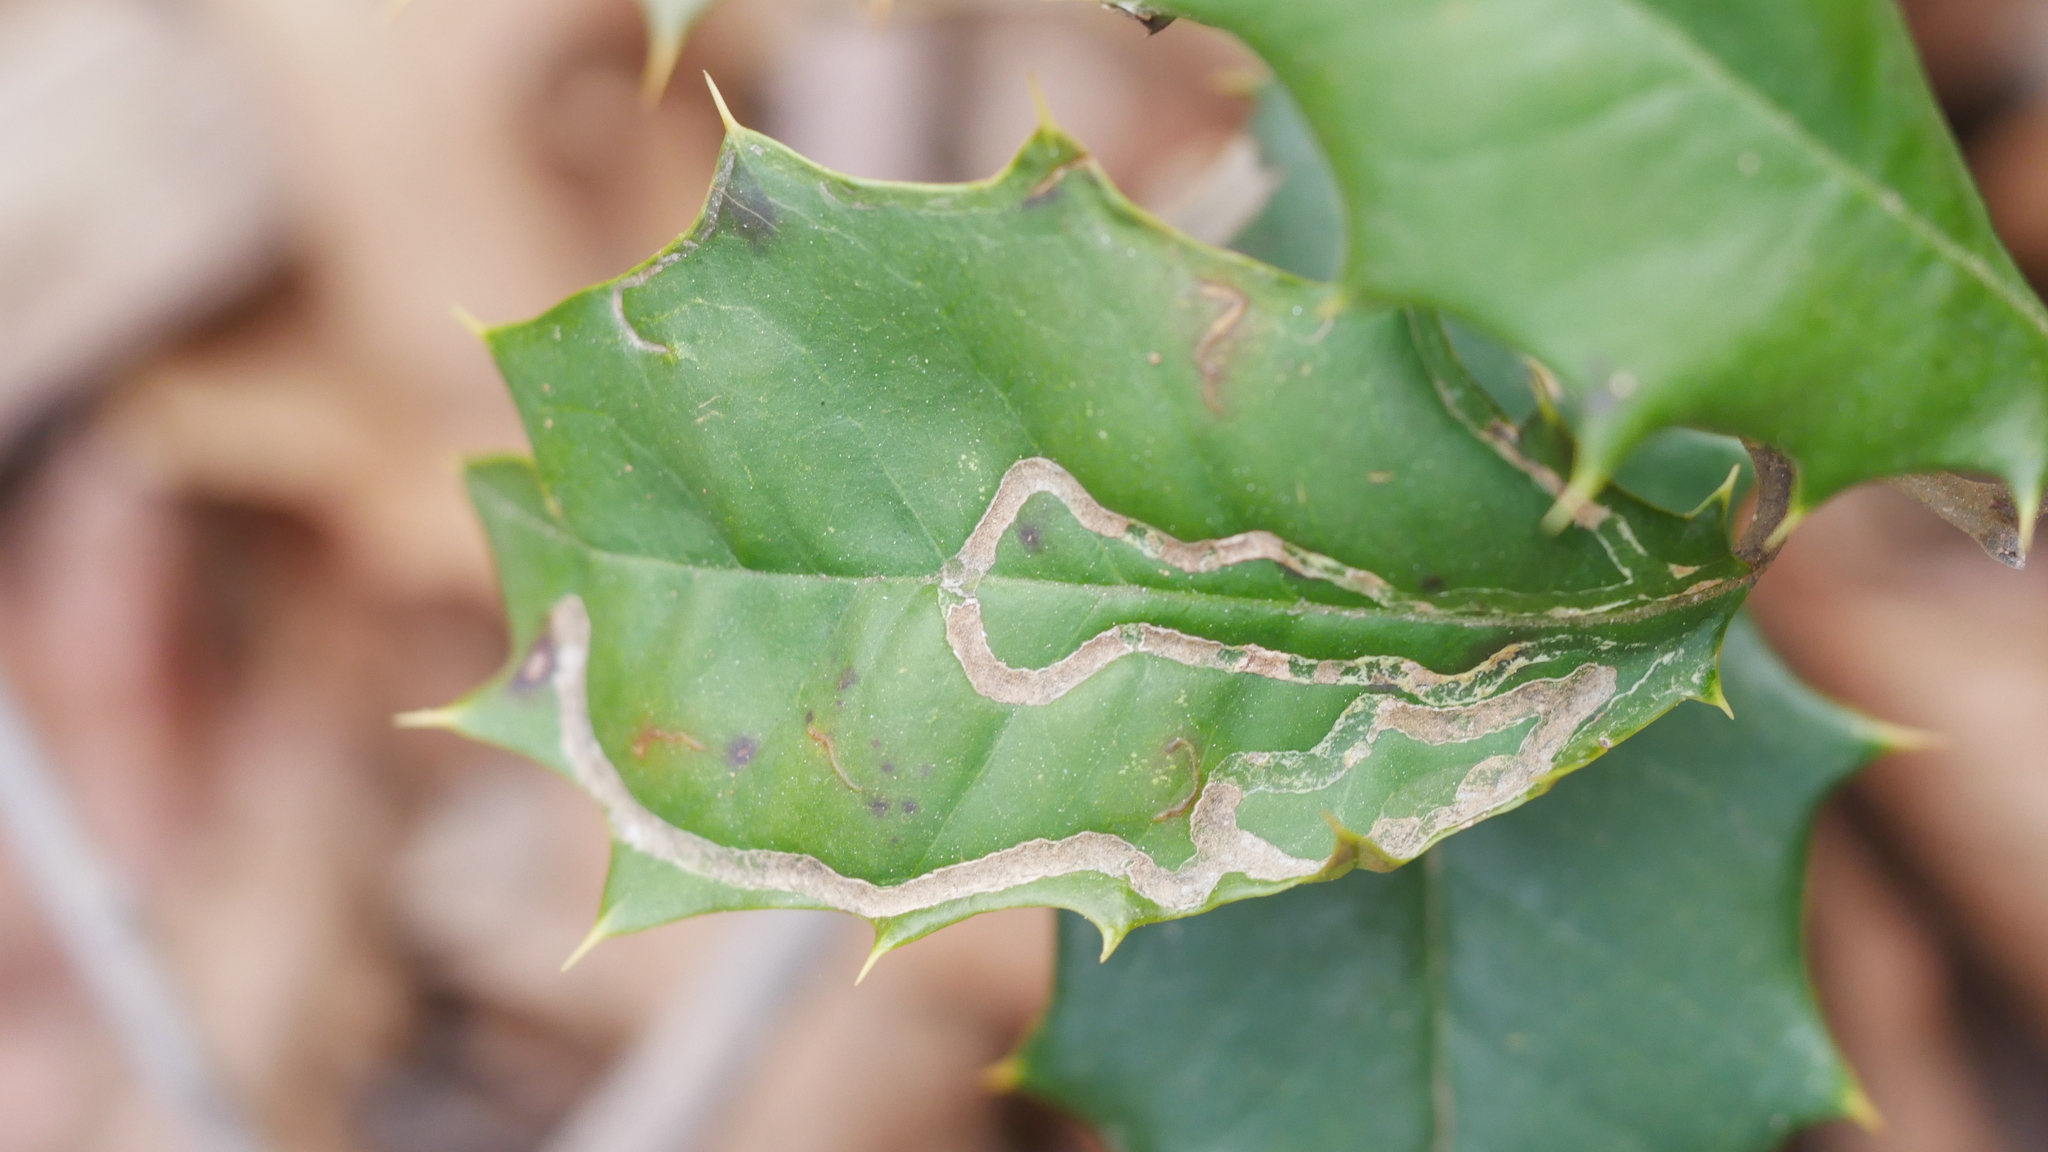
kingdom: Animalia
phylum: Arthropoda
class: Insecta
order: Diptera
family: Agromyzidae
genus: Phytomyza
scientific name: Phytomyza opacae
